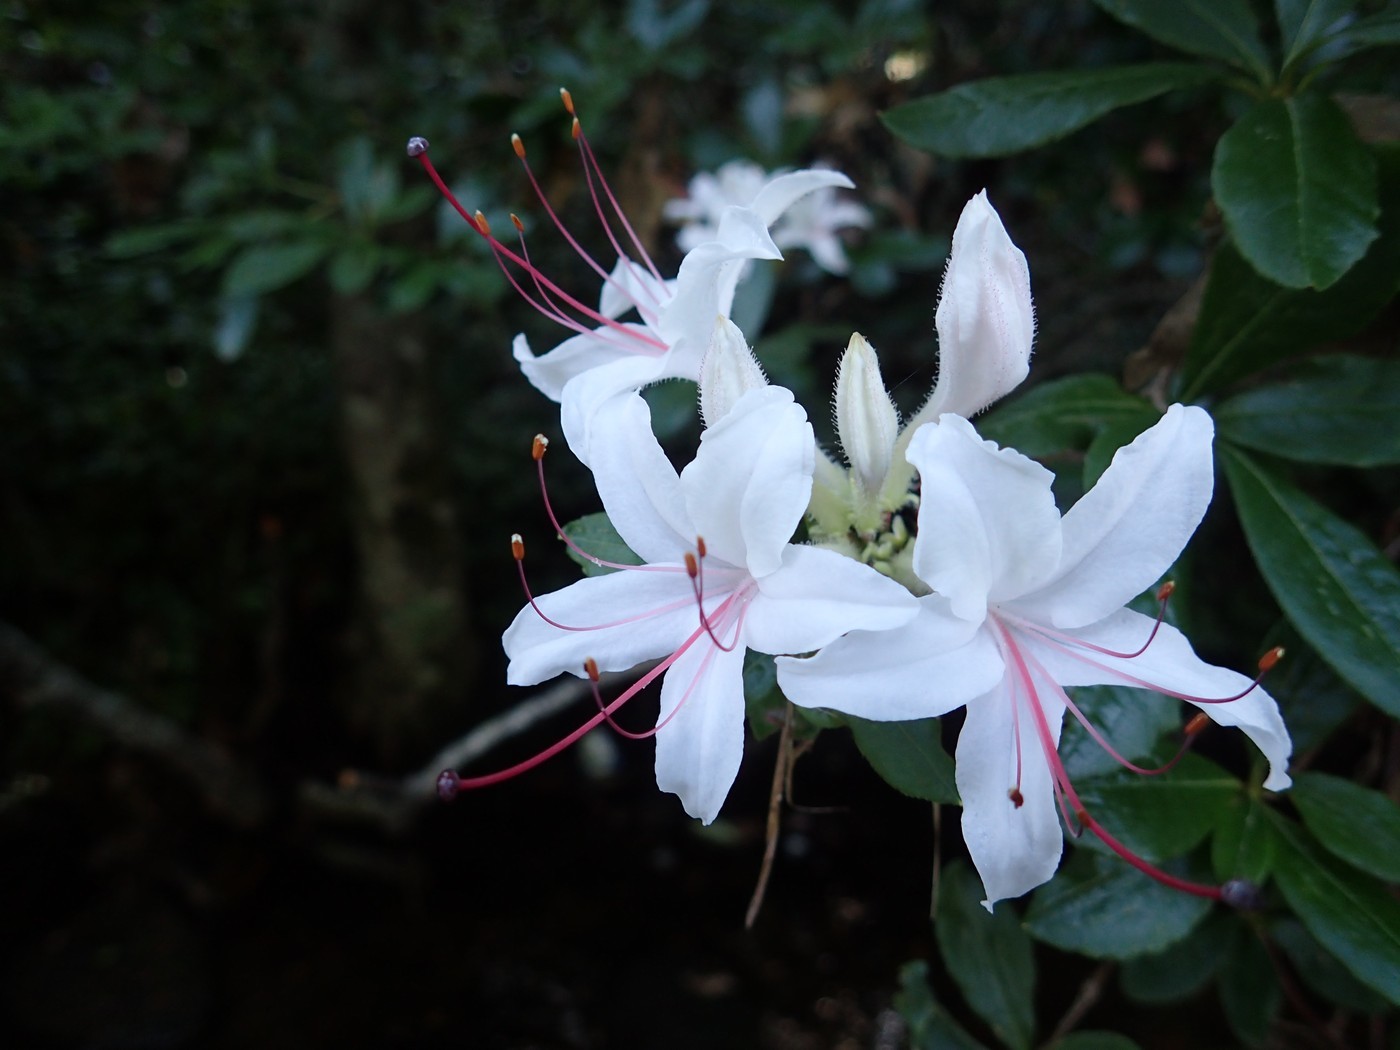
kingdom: Plantae
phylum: Tracheophyta
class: Magnoliopsida
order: Ericales
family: Ericaceae
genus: Rhododendron
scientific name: Rhododendron arborescens
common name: Sweet azalea
